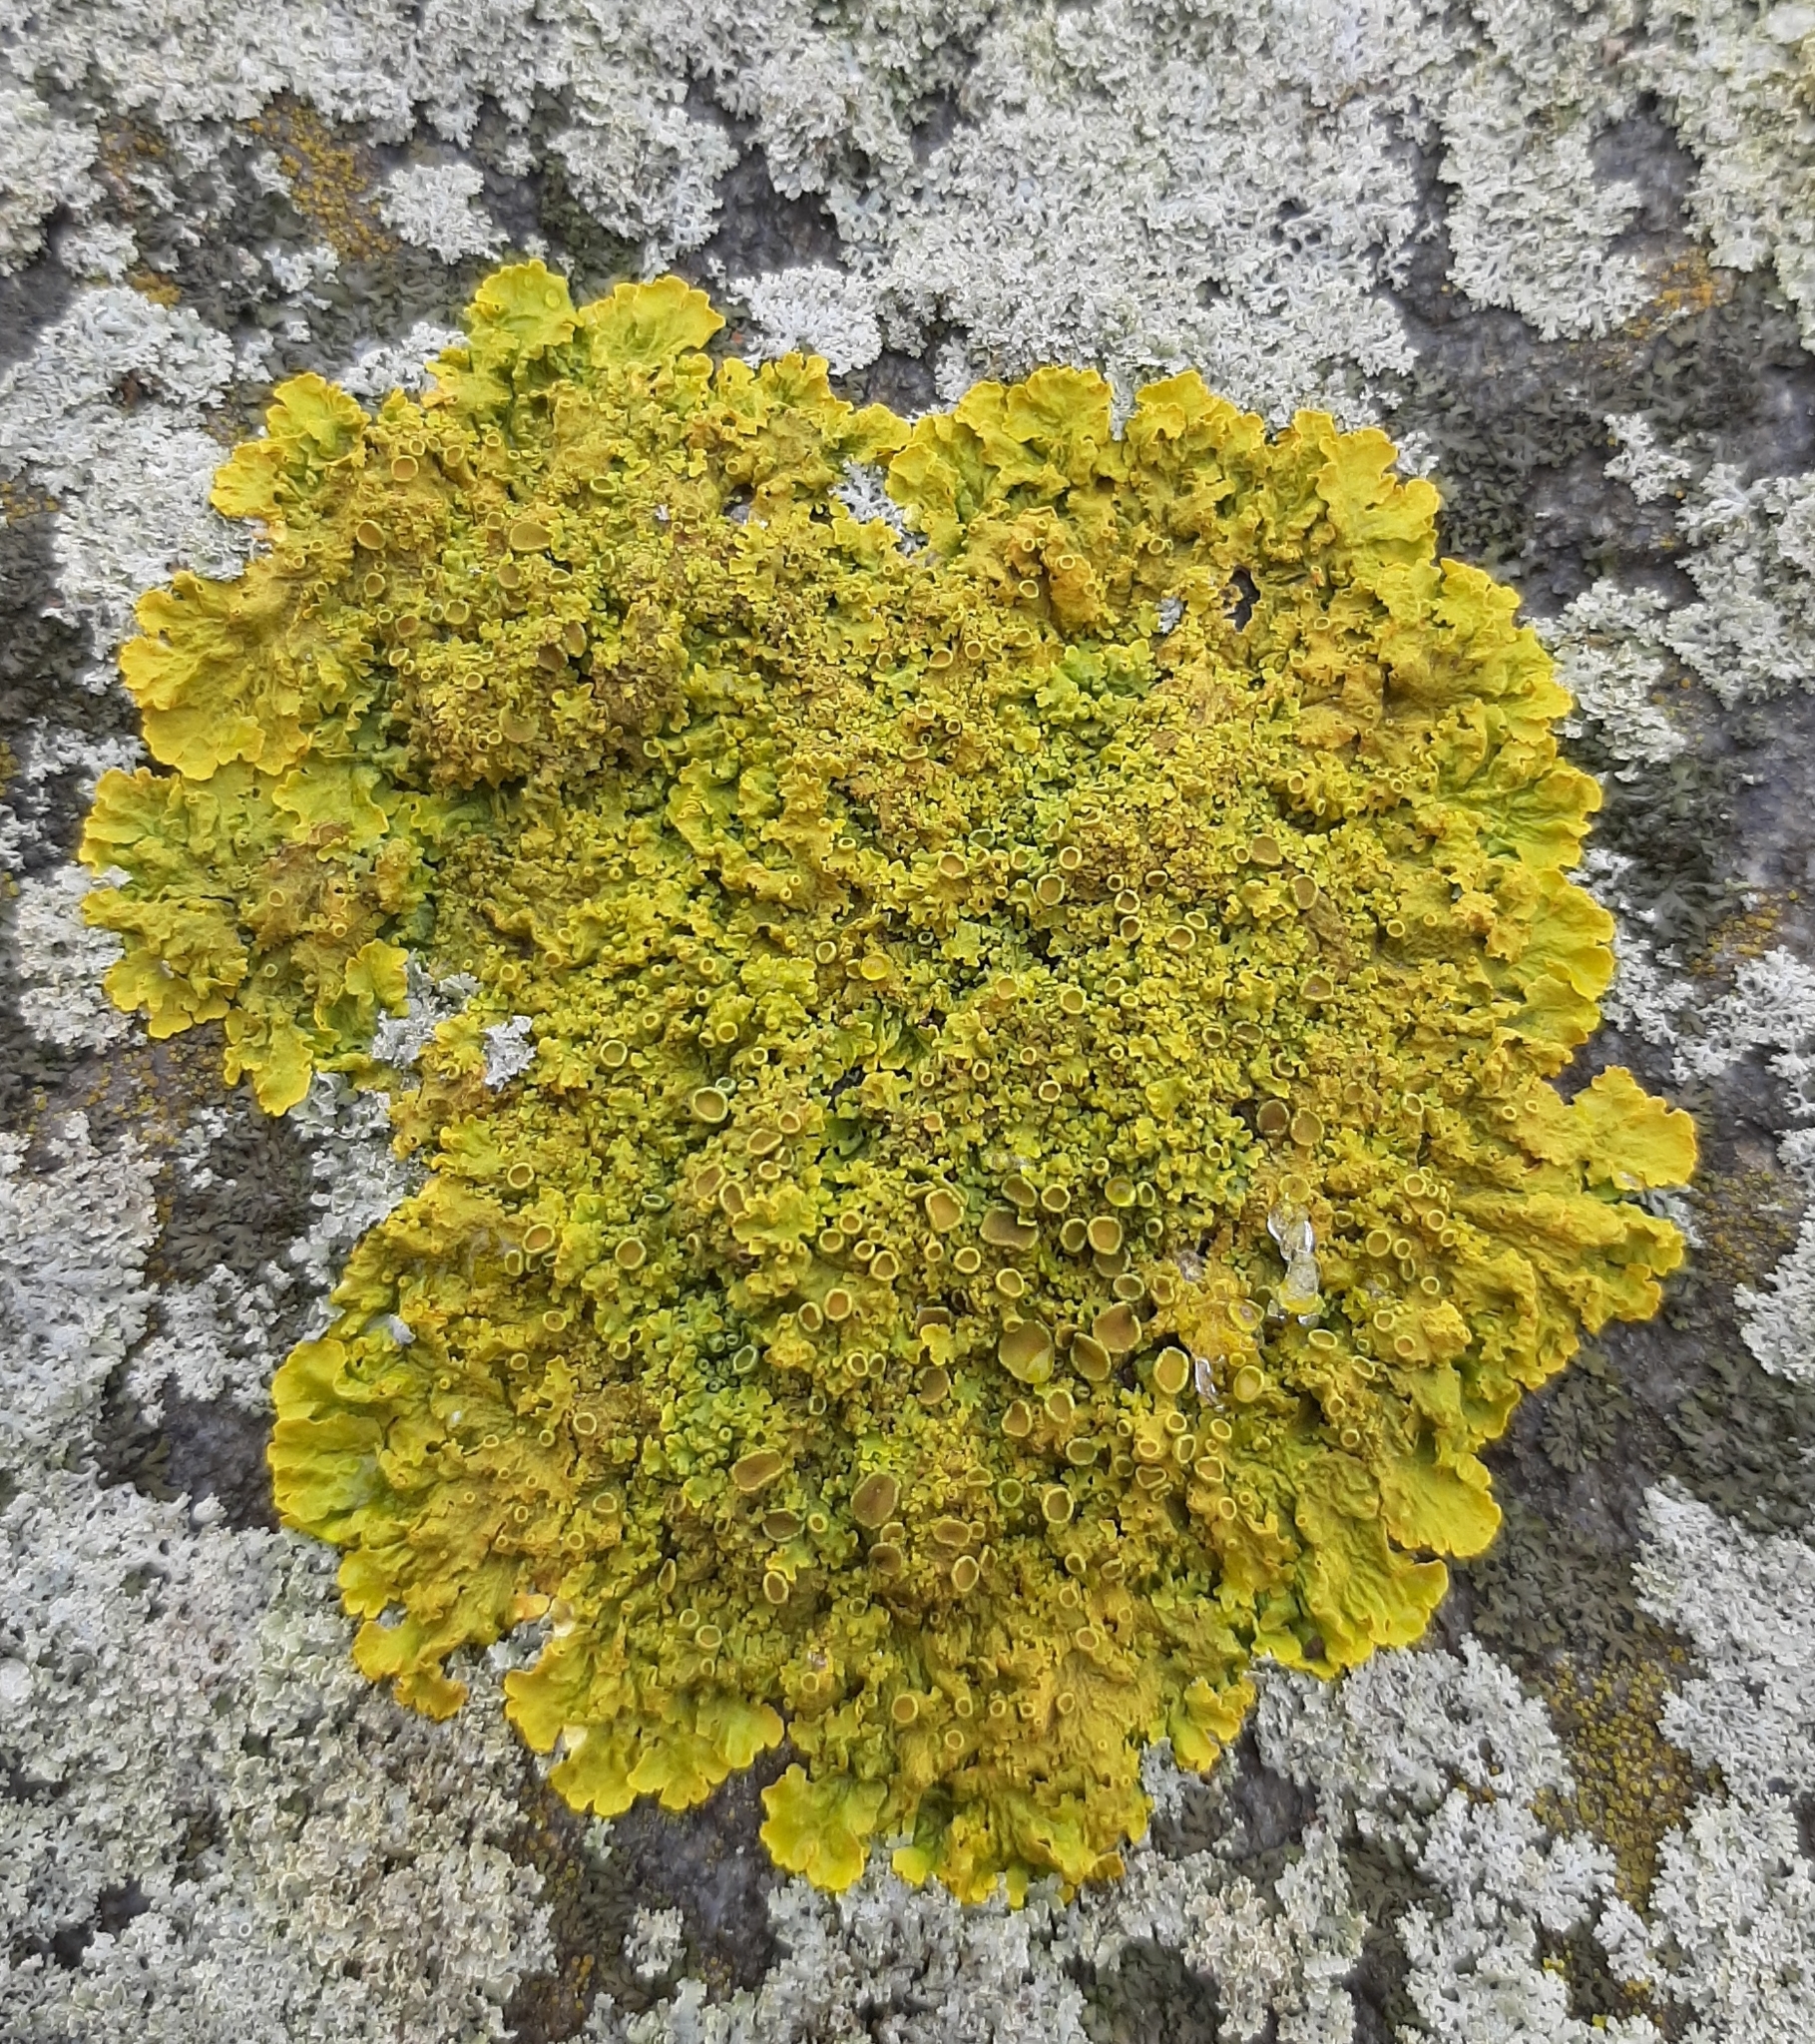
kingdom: Fungi
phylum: Ascomycota
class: Lecanoromycetes
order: Teloschistales
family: Teloschistaceae
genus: Xanthoria
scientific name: Xanthoria parietina
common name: Common orange lichen
